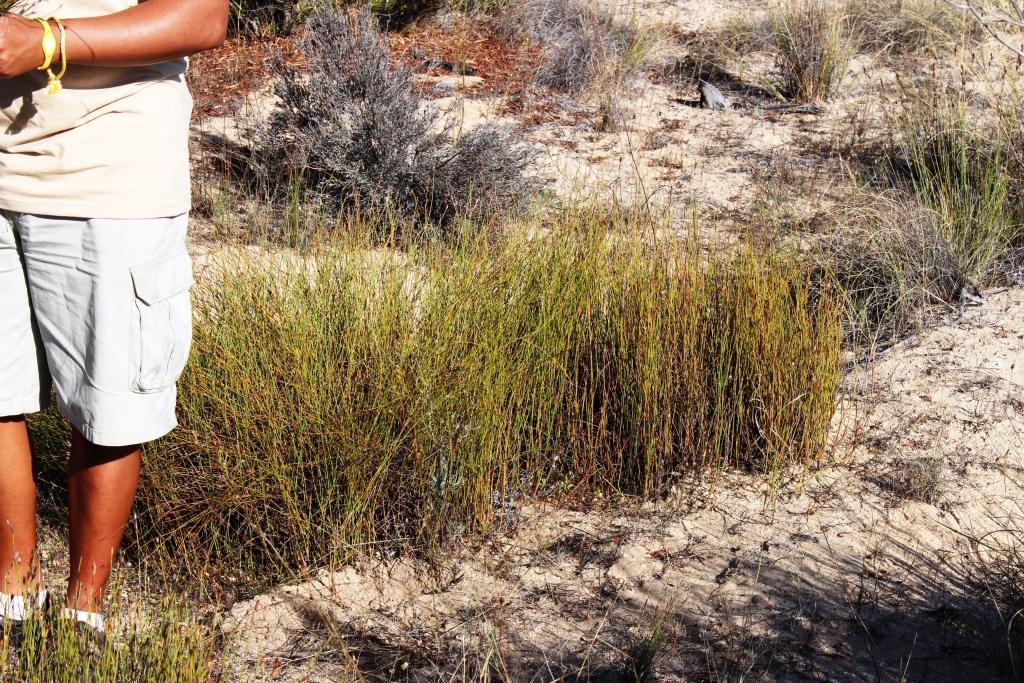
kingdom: Plantae
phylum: Tracheophyta
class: Liliopsida
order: Poales
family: Restionaceae
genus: Willdenowia
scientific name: Willdenowia sulcata
